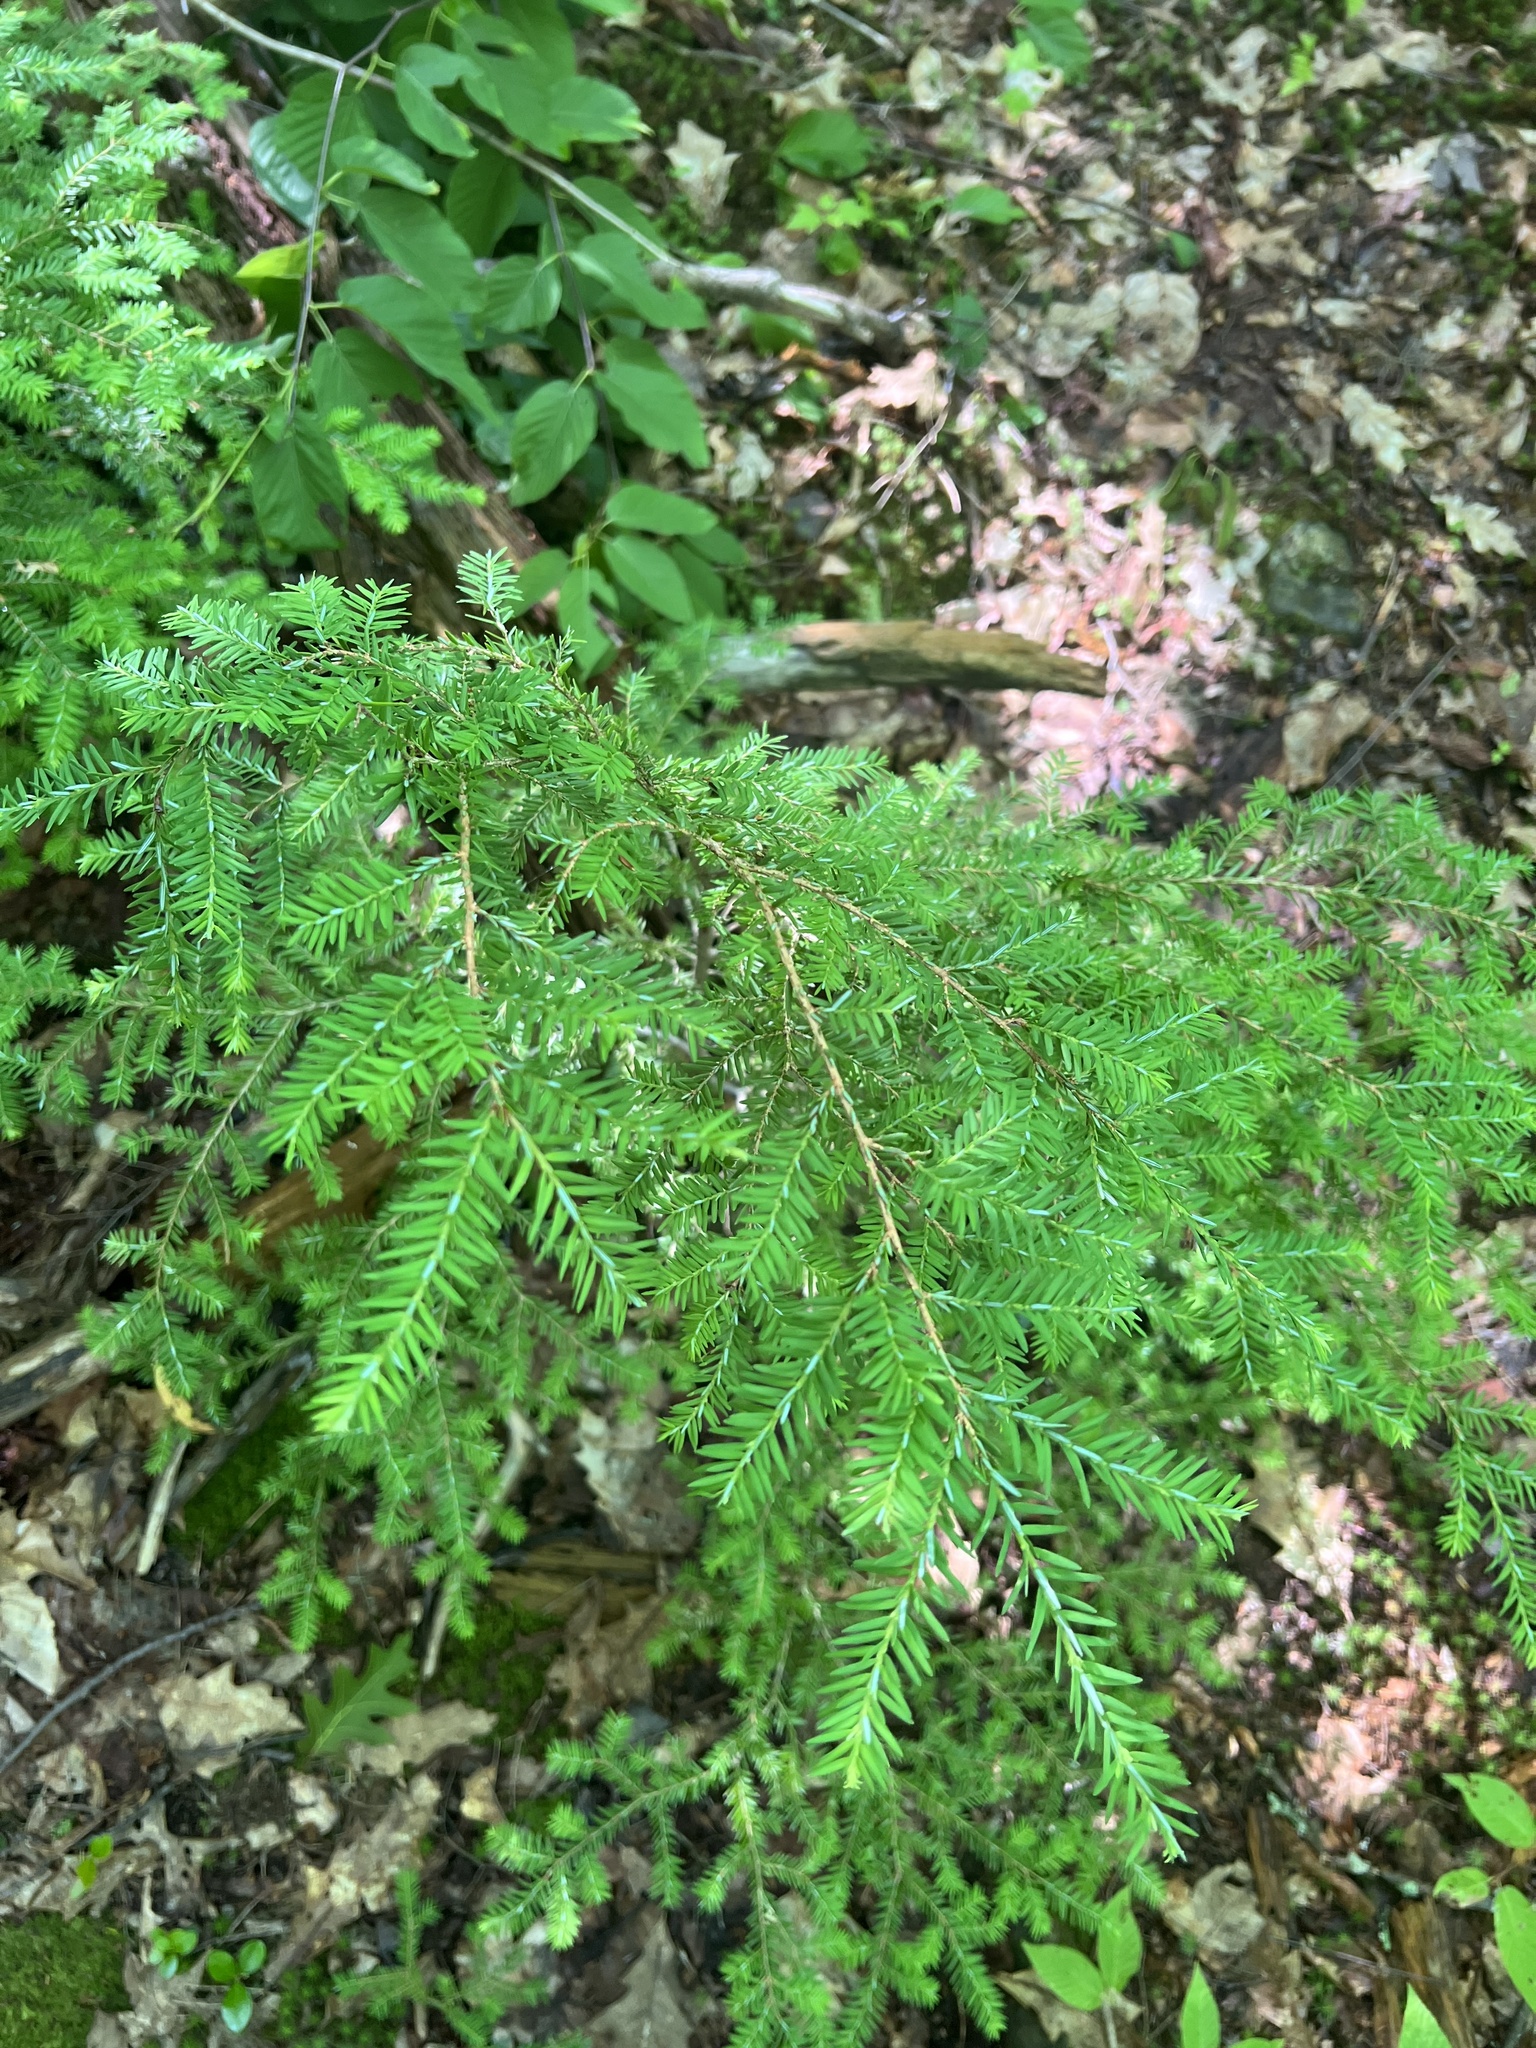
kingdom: Plantae
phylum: Tracheophyta
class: Pinopsida
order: Pinales
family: Pinaceae
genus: Tsuga
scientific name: Tsuga canadensis
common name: Eastern hemlock
